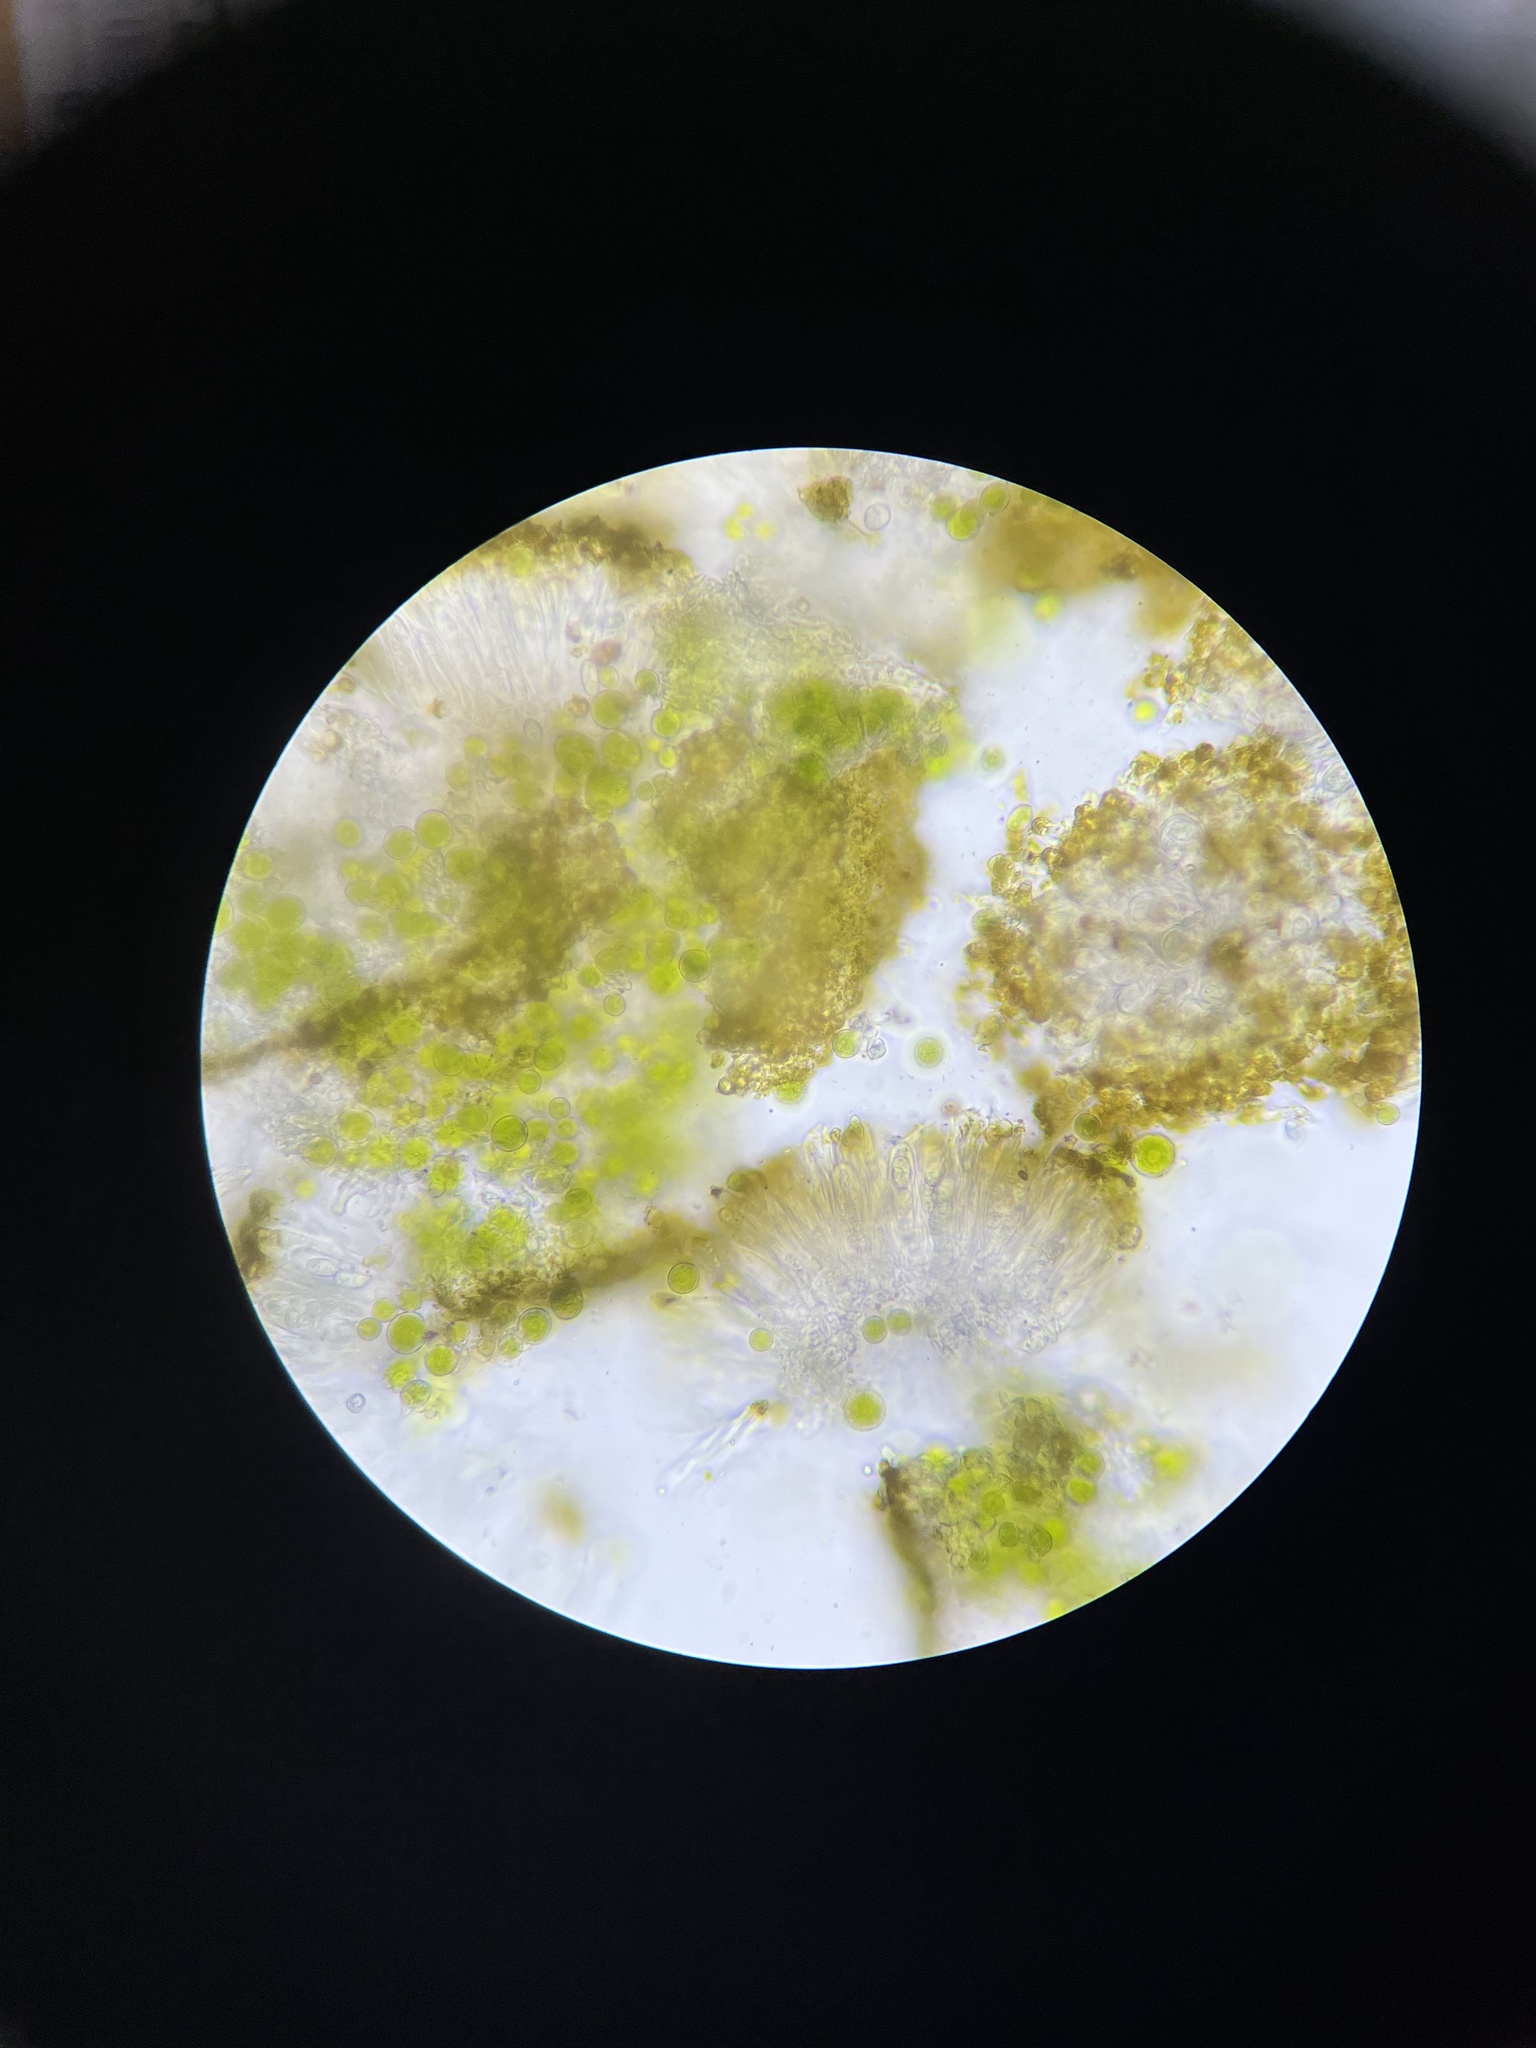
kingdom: Fungi
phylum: Ascomycota
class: Lecanoromycetes
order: Teloschistales
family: Teloschistaceae
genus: Xanthoria
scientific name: Xanthoria elegans
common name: Elegant sunburst lichen
